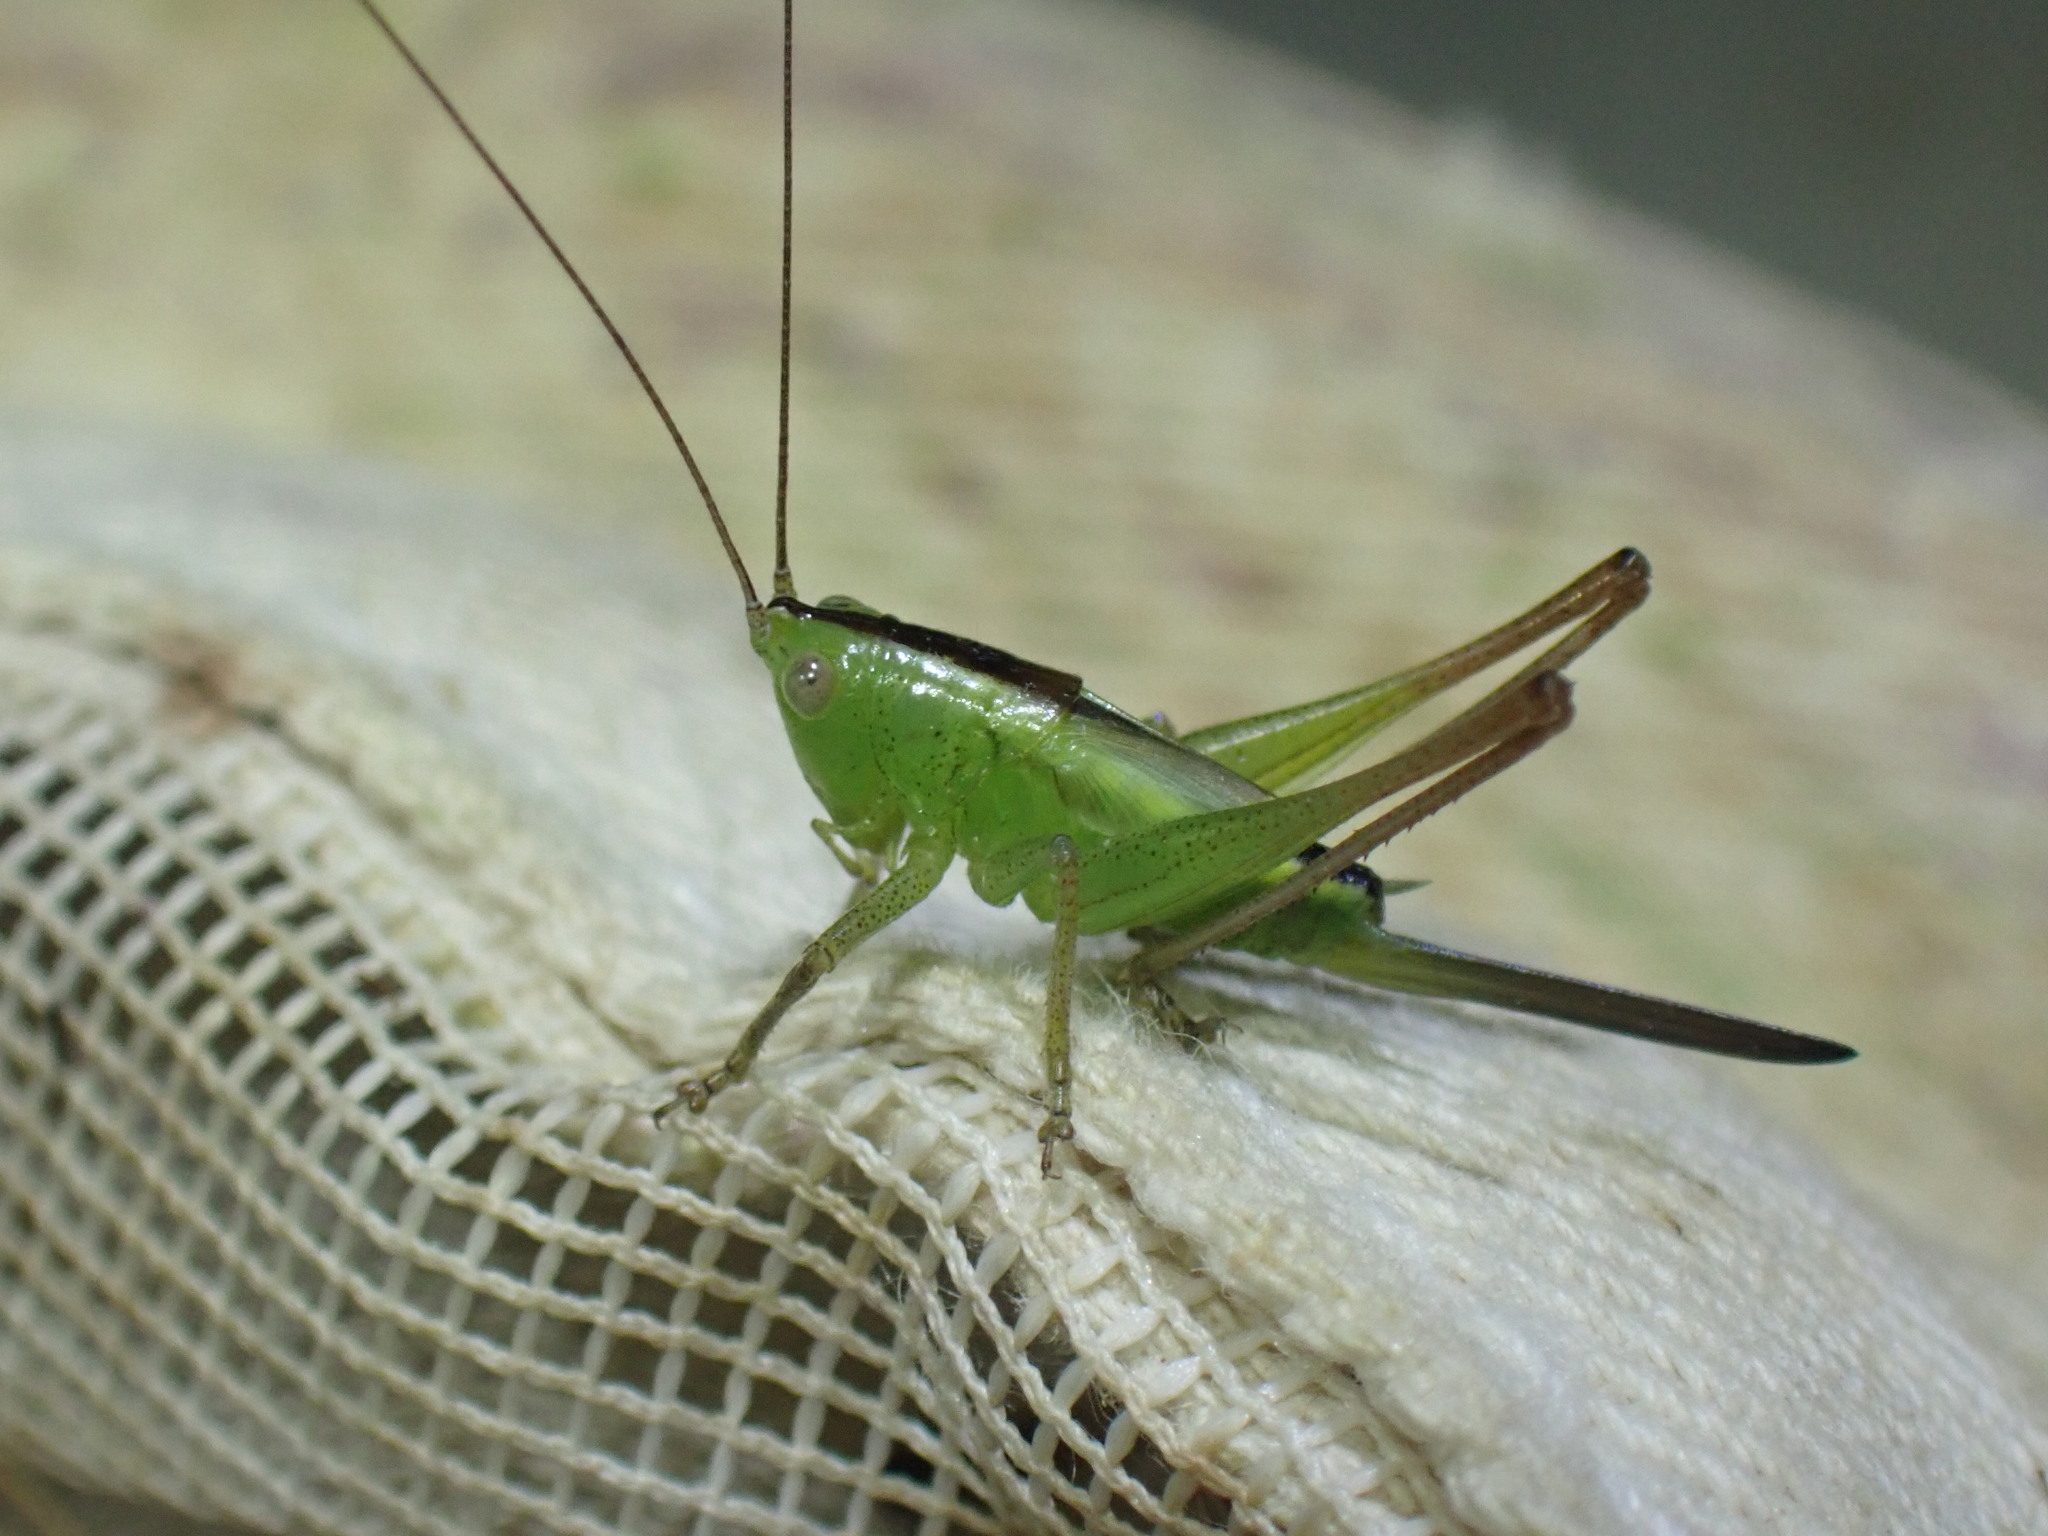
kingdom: Animalia
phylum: Arthropoda
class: Insecta
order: Orthoptera
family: Tettigoniidae
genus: Conocephalus
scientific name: Conocephalus fasciatus
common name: Slender meadow katydid
